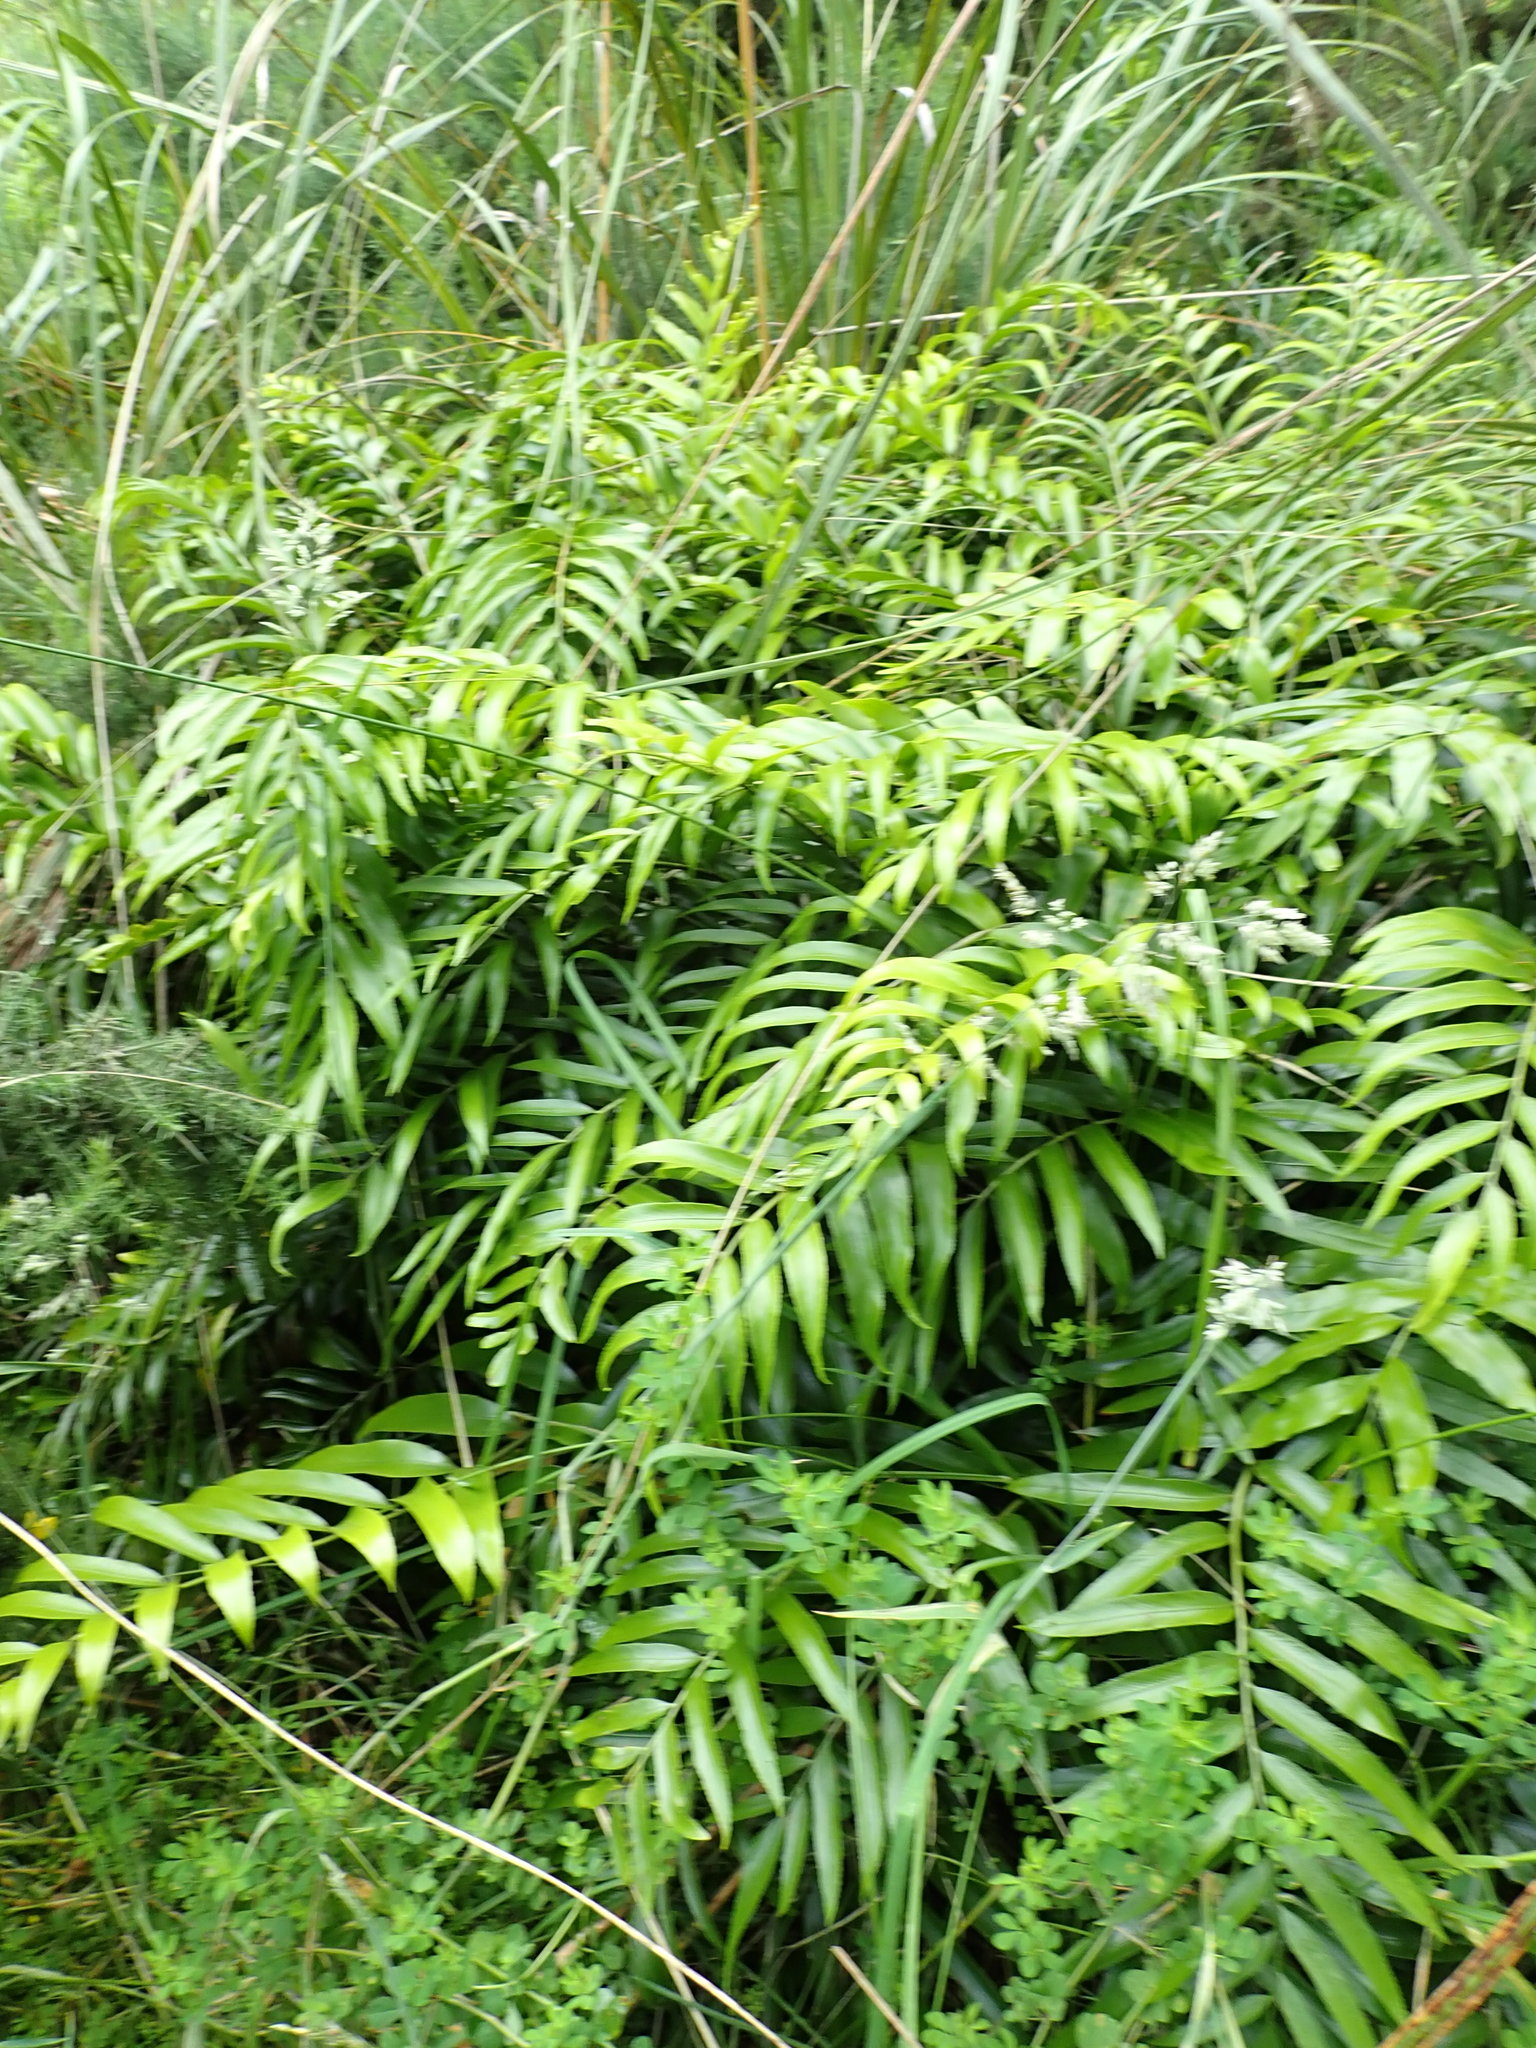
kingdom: Plantae
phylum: Tracheophyta
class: Polypodiopsida
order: Polypodiales
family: Aspleniaceae
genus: Asplenium
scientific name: Asplenium oblongifolium
